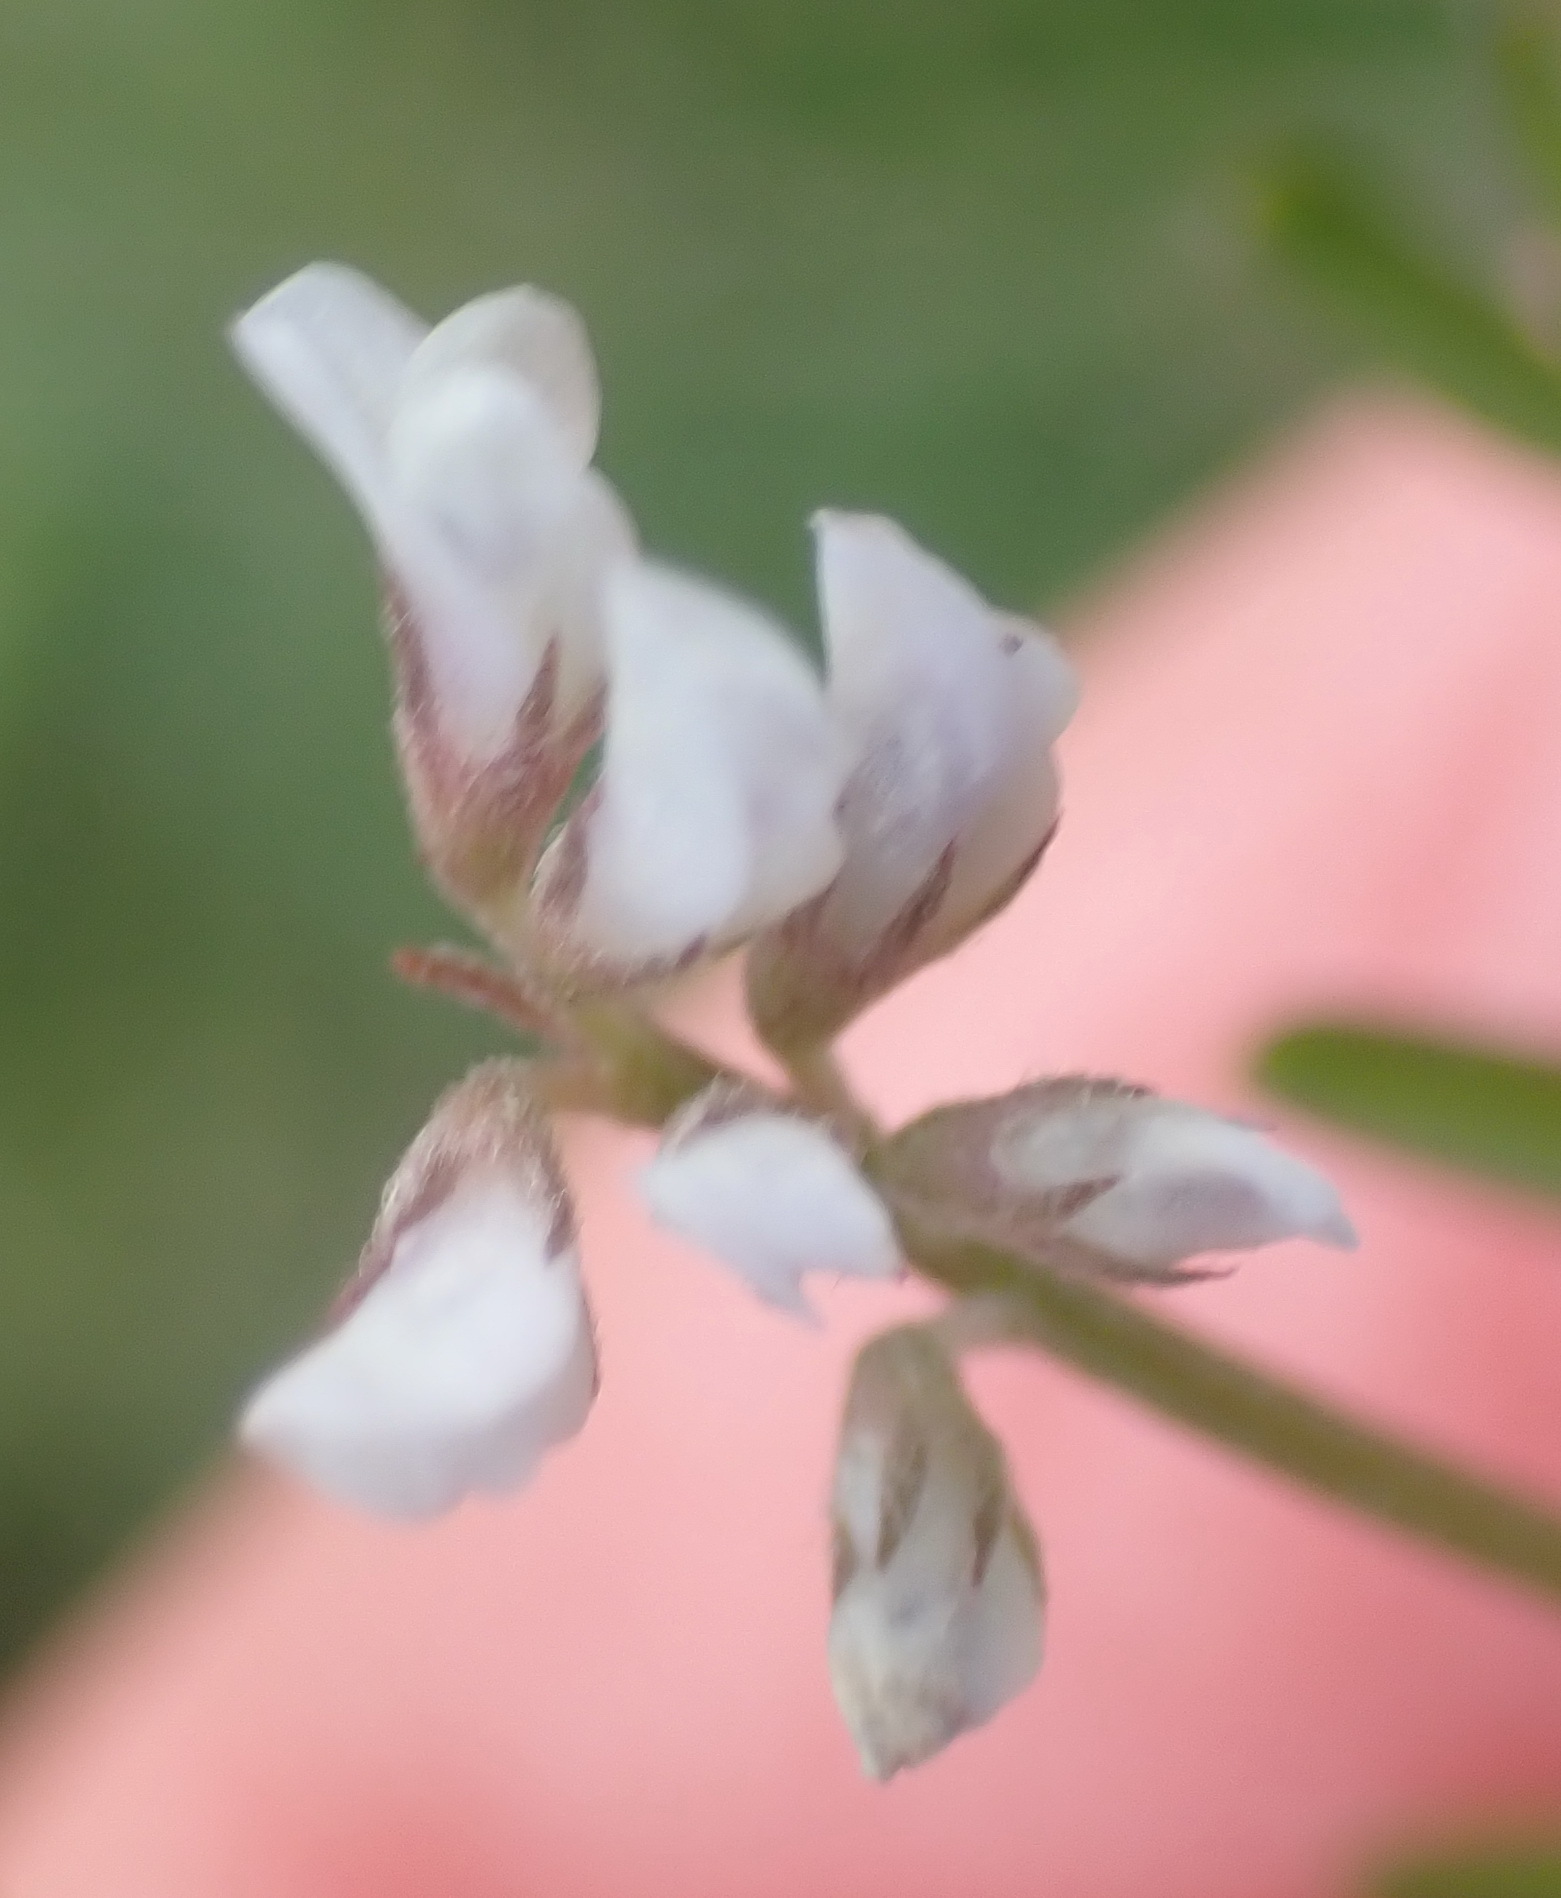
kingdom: Plantae
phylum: Tracheophyta
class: Magnoliopsida
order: Fabales
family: Fabaceae
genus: Vicia
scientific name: Vicia hirsuta
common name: Tiny vetch
